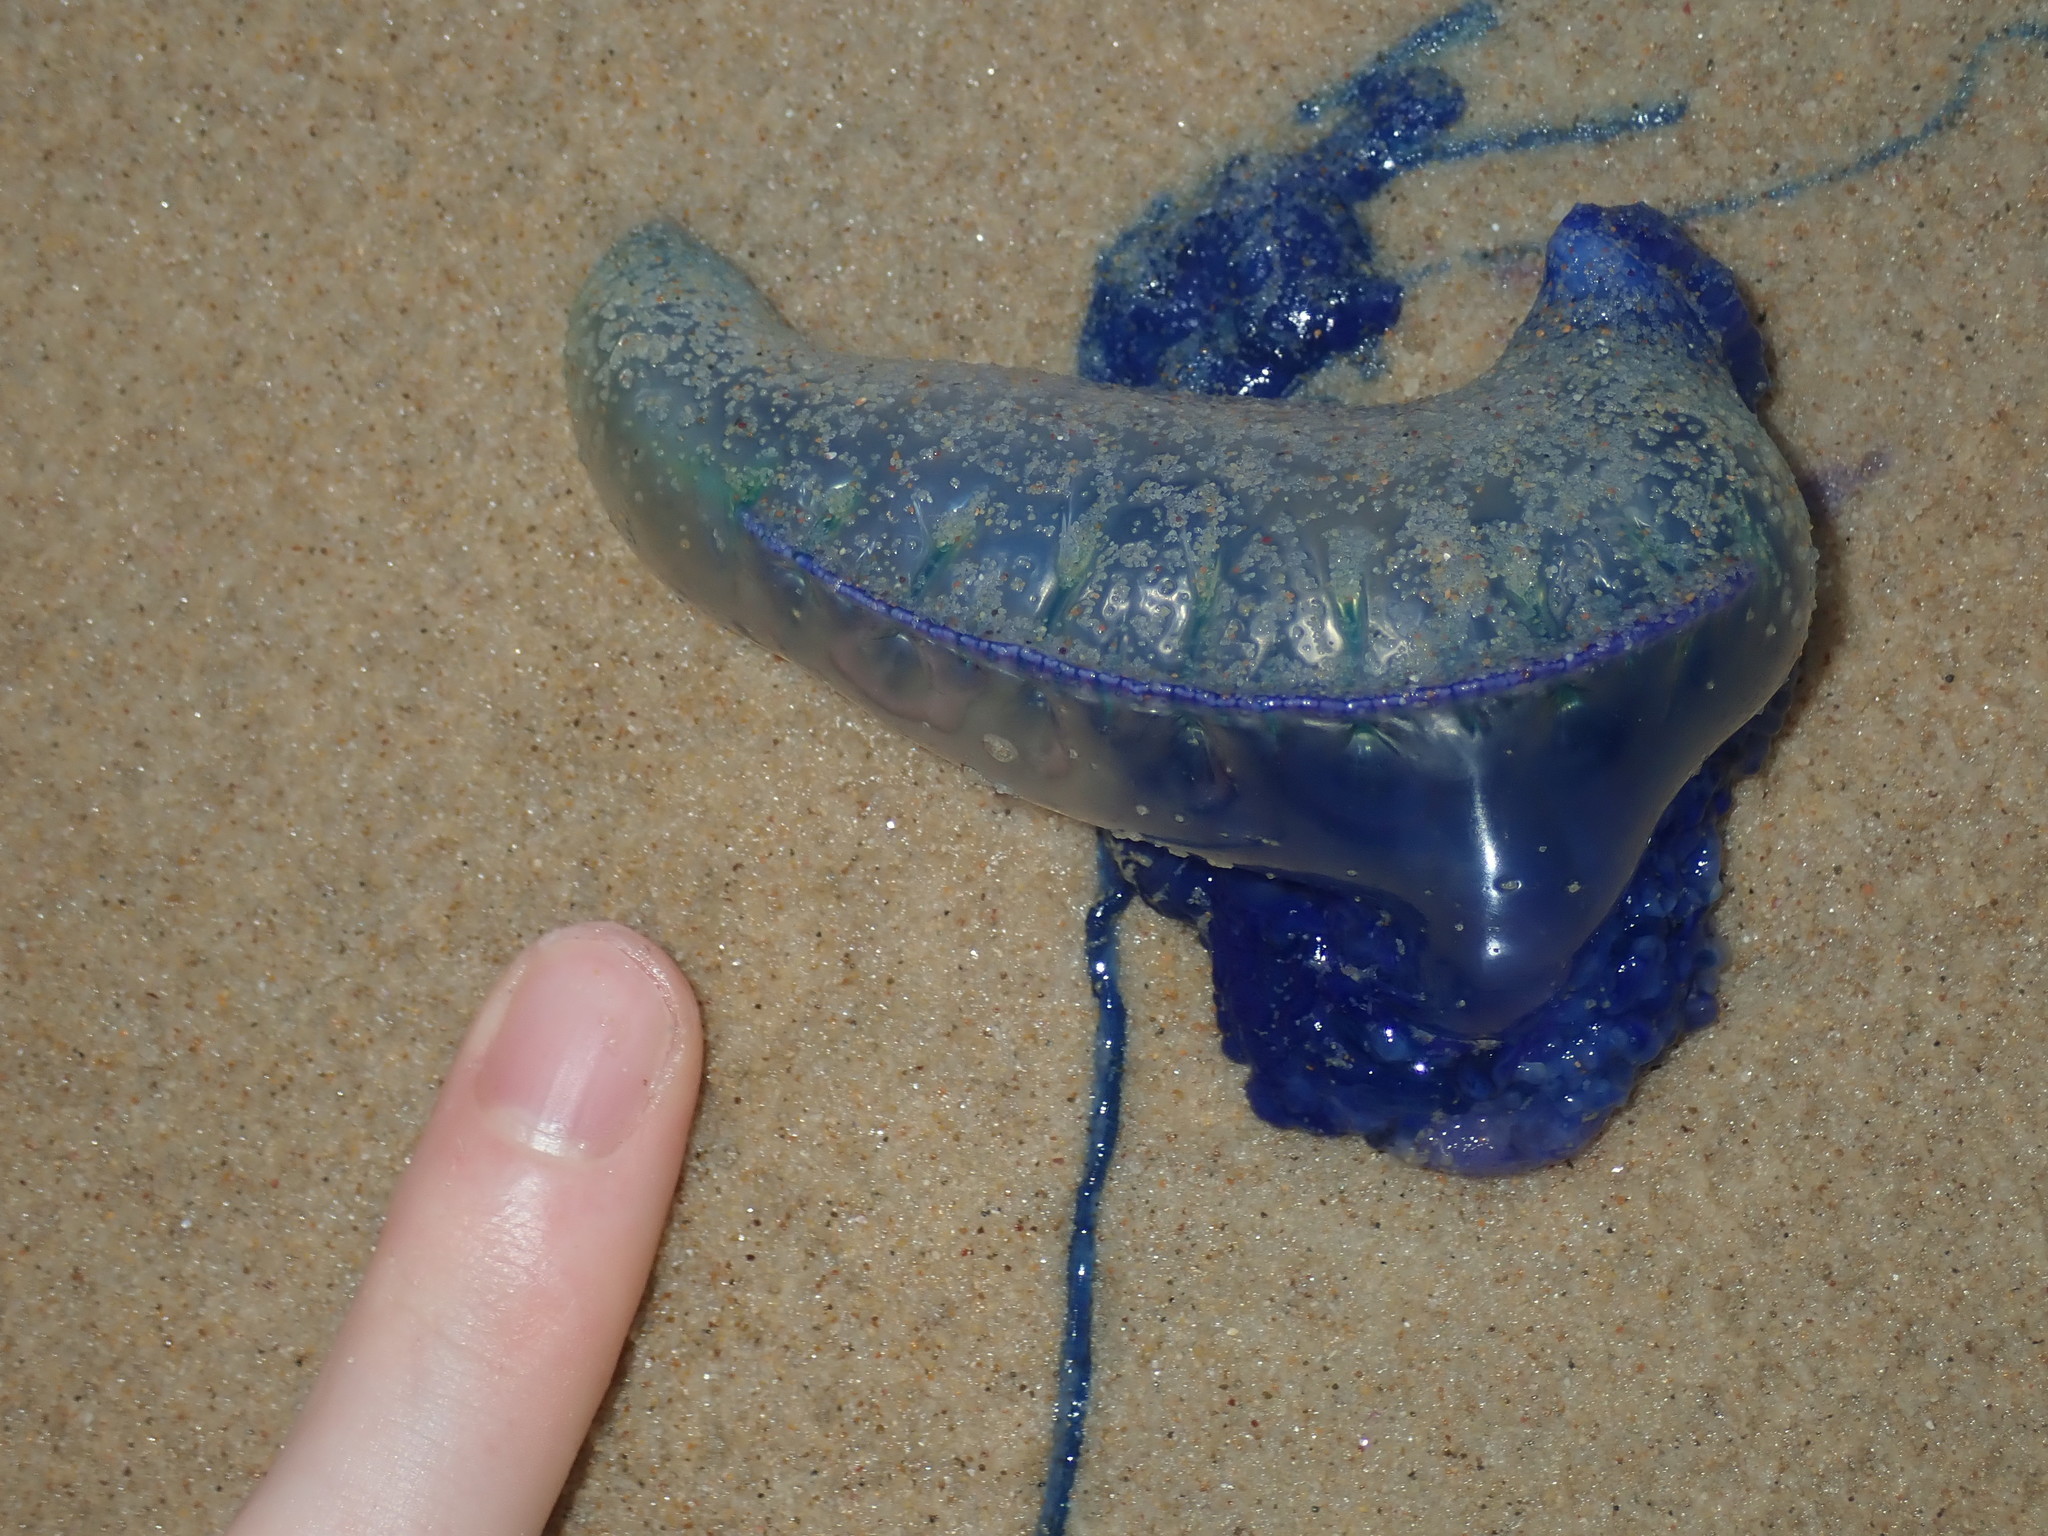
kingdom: Animalia
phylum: Cnidaria
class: Hydrozoa
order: Siphonophorae
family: Physaliidae
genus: Physalia
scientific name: Physalia physalis
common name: Portuguese man-of-war
